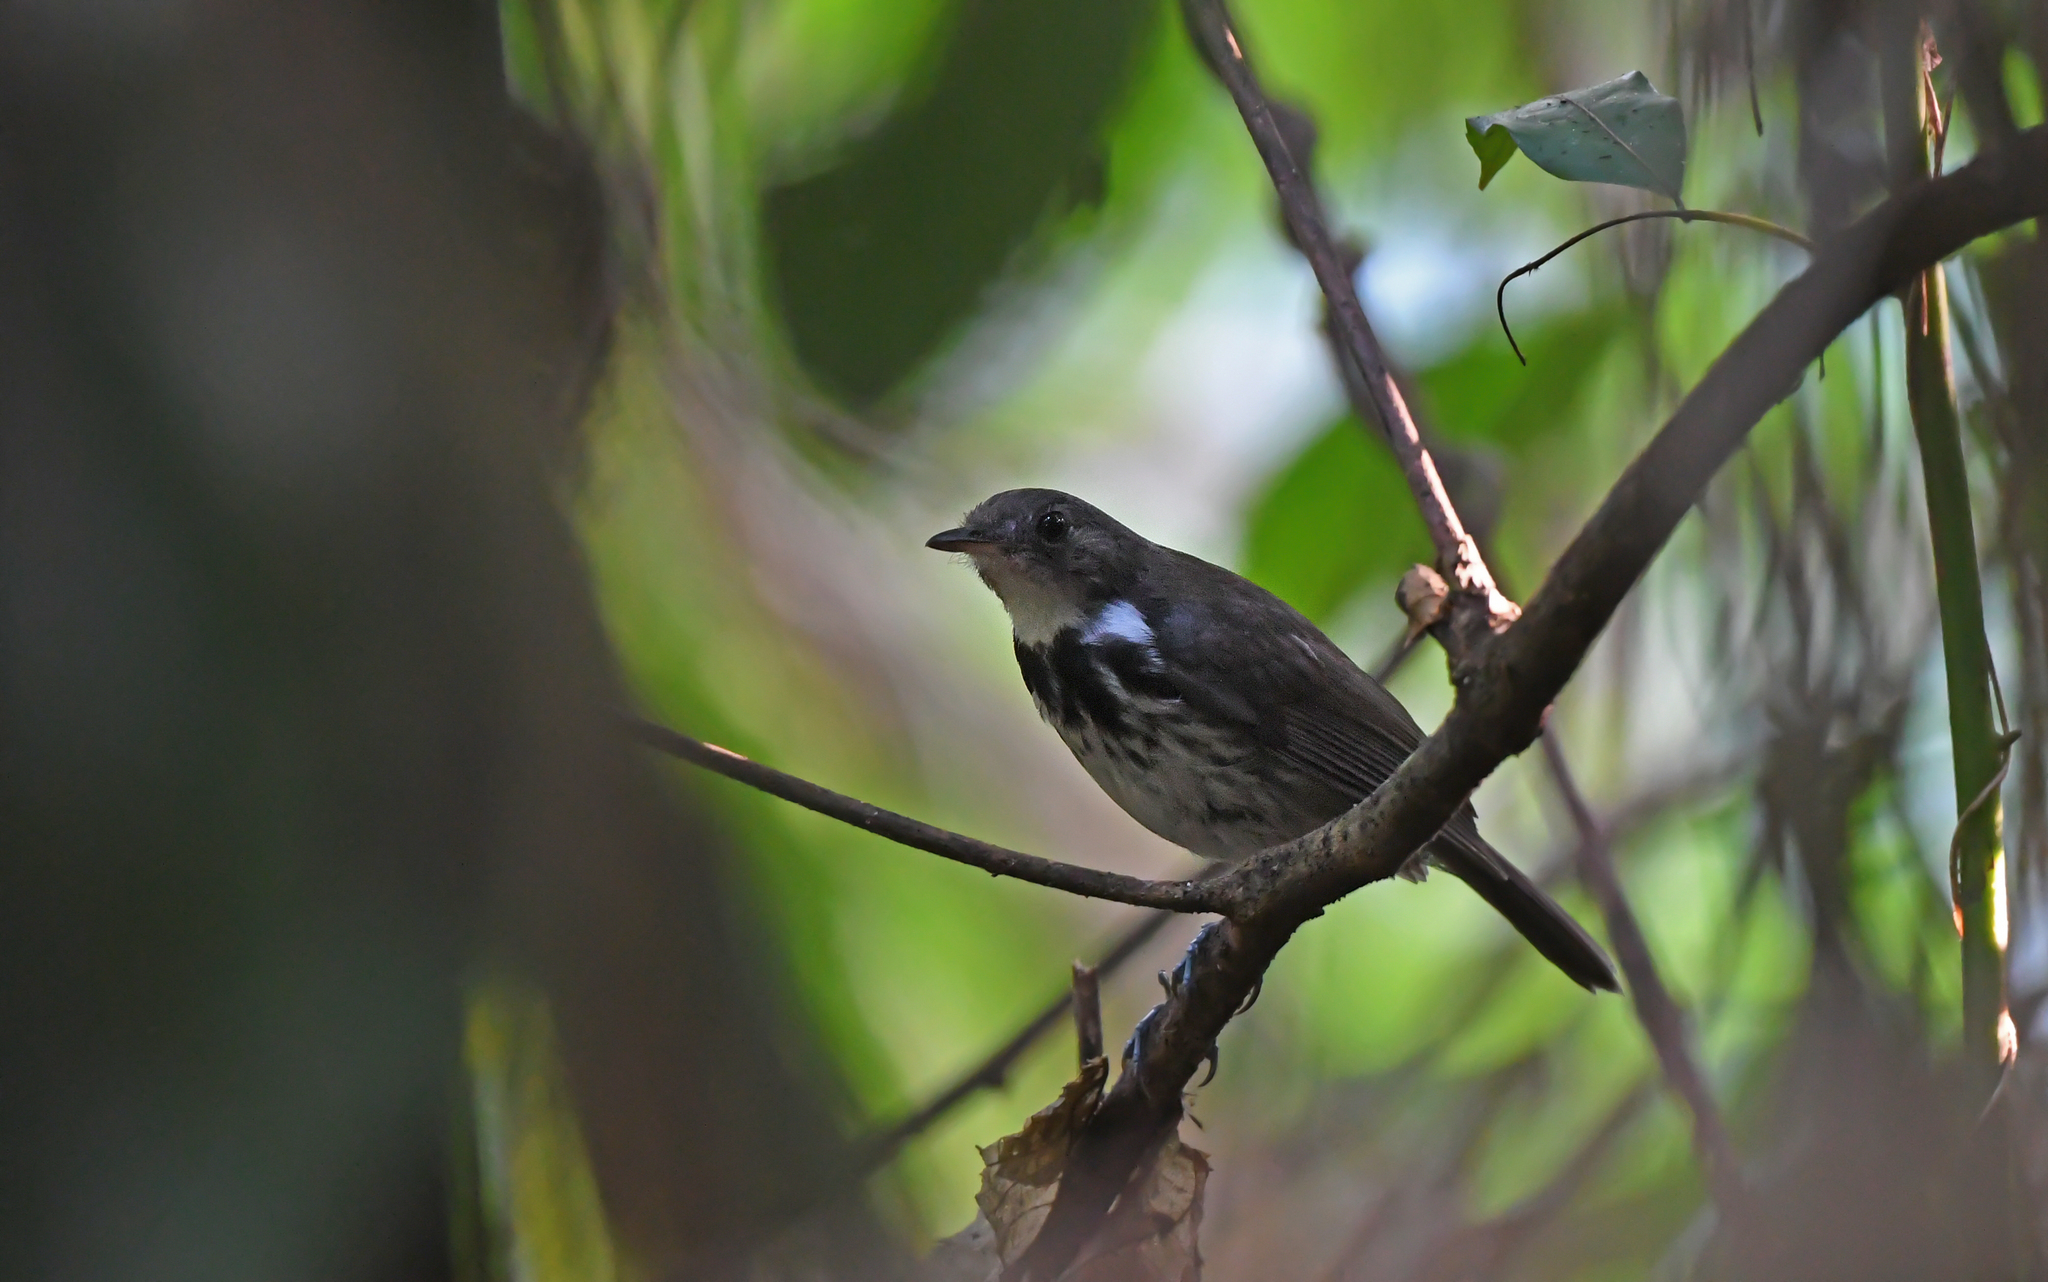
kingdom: Animalia
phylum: Chordata
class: Aves
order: Passeriformes
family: Tyrannidae
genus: Corythopis
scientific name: Corythopis torquatus
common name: Ringed antpipit
